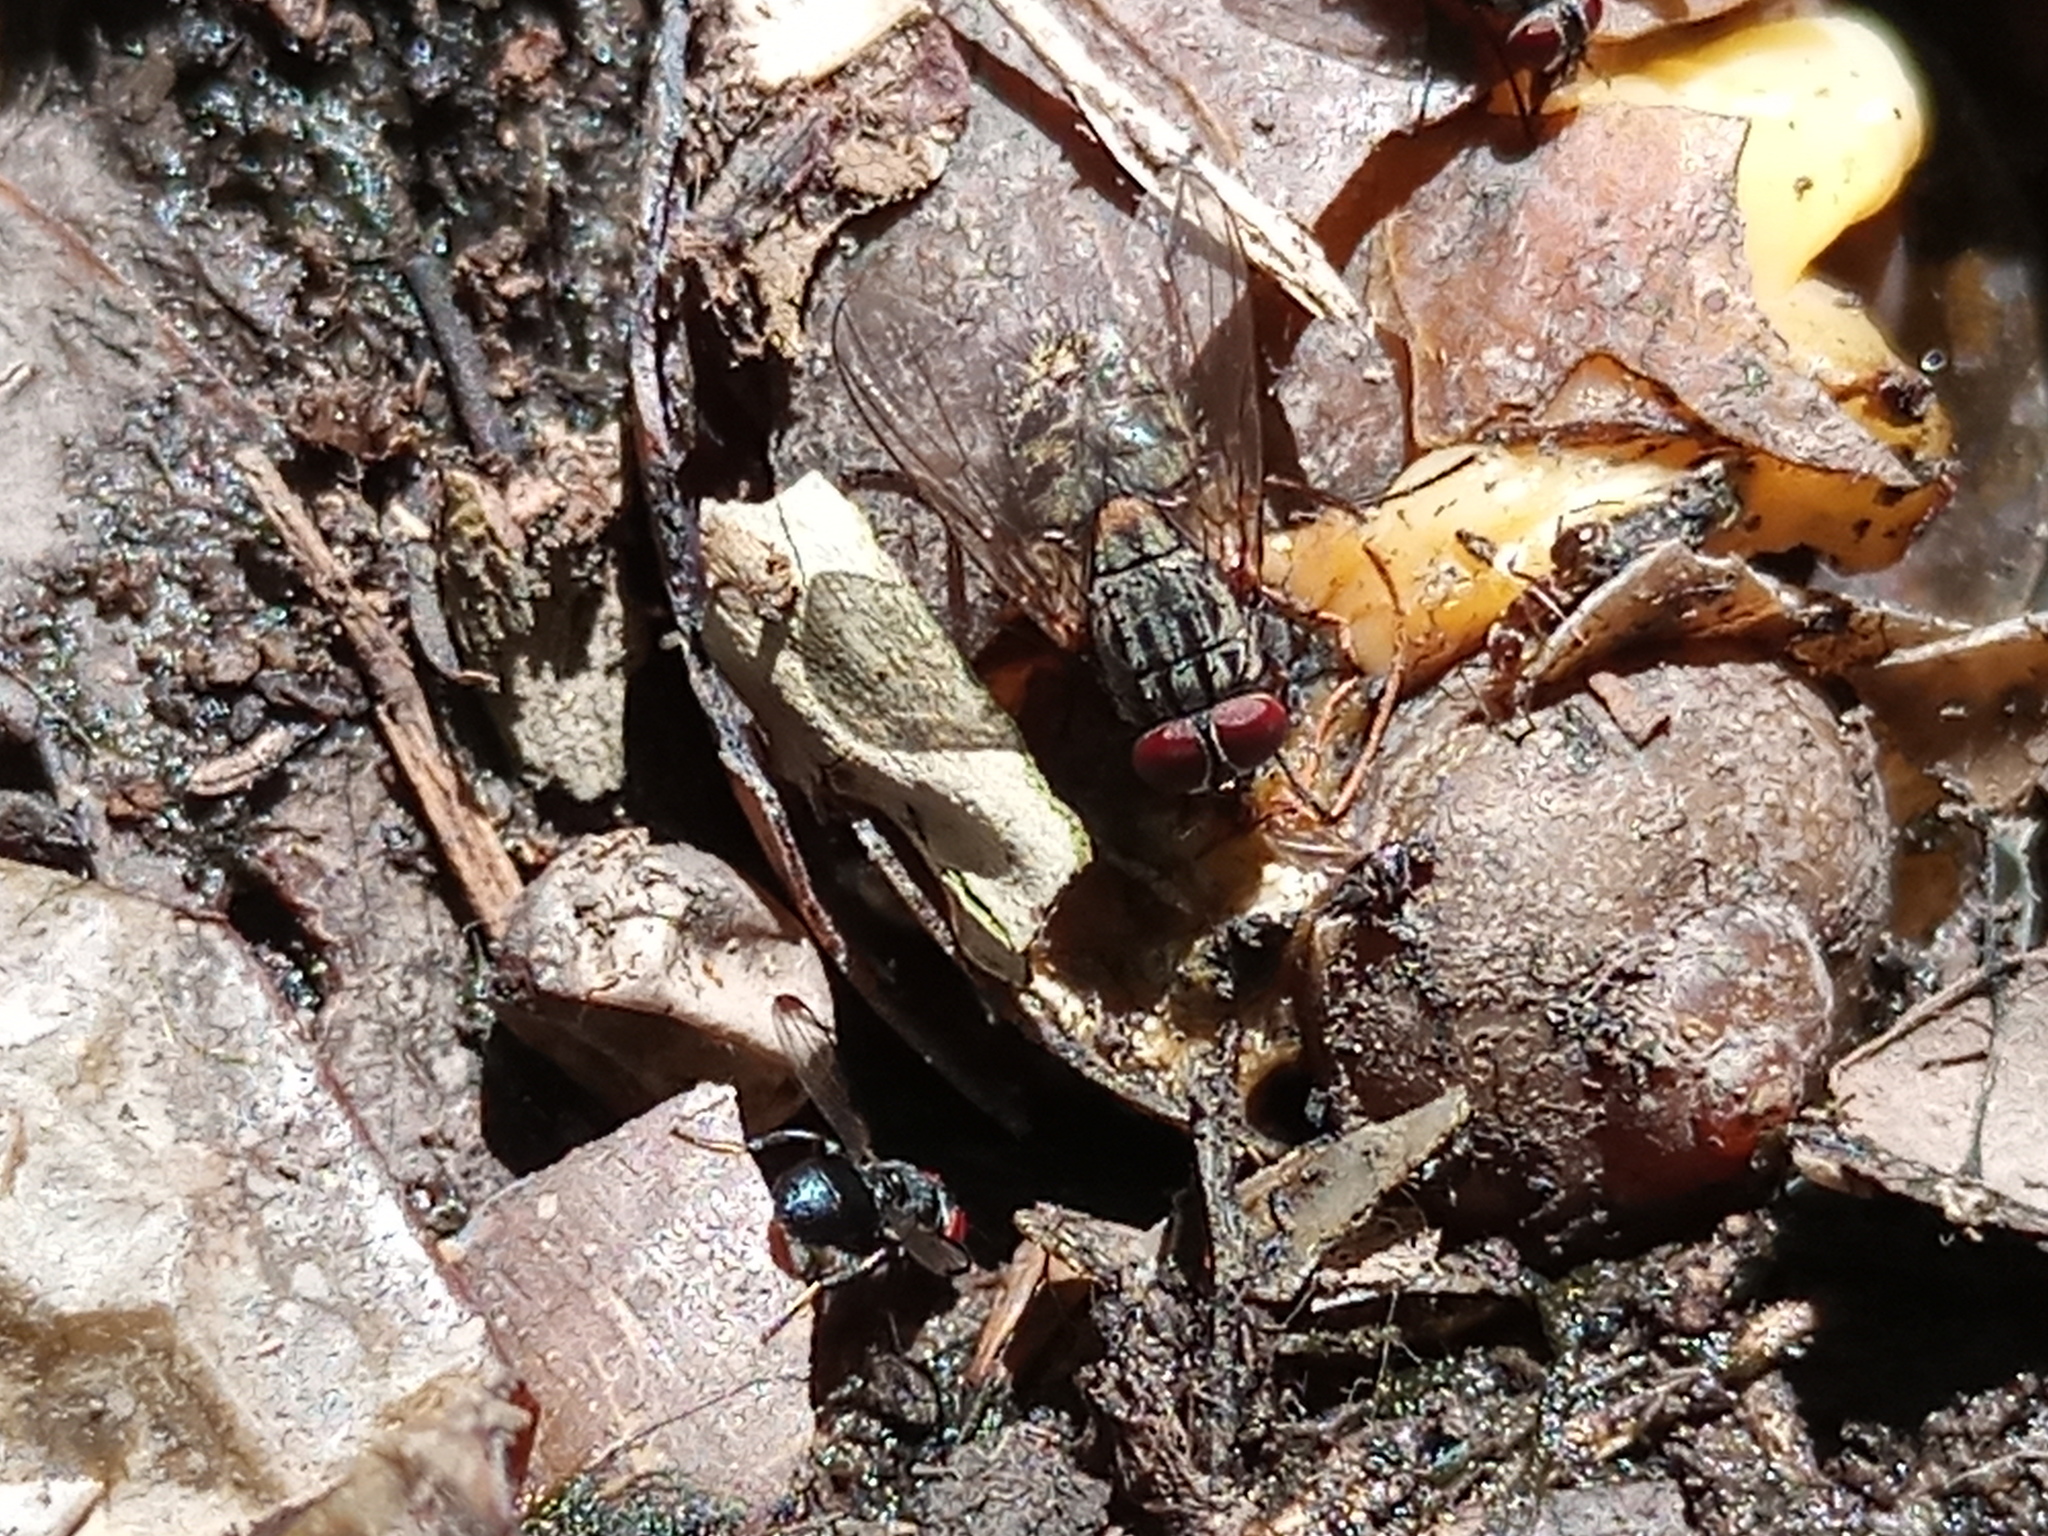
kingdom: Animalia
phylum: Arthropoda
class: Insecta
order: Diptera
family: Muscidae
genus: Muscina
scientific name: Muscina stabulans
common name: False stable fly
